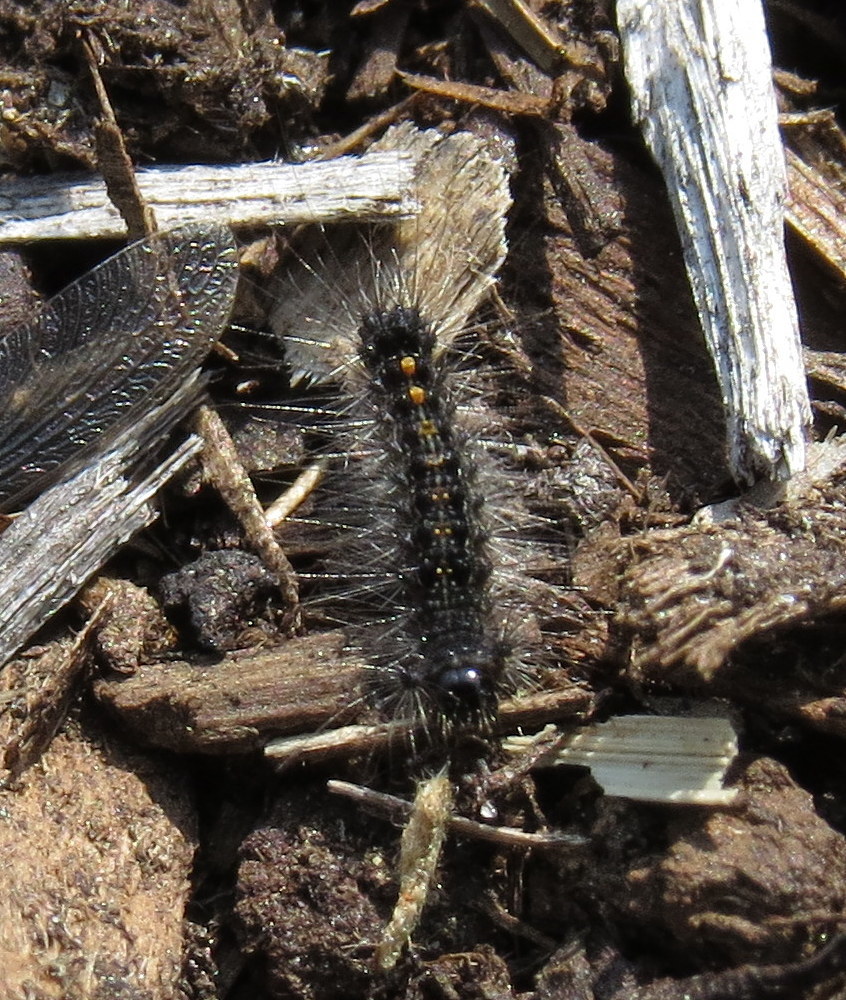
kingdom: Animalia
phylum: Arthropoda
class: Insecta
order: Lepidoptera
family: Erebidae
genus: Lymantria
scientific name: Lymantria dispar
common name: Gypsy moth
